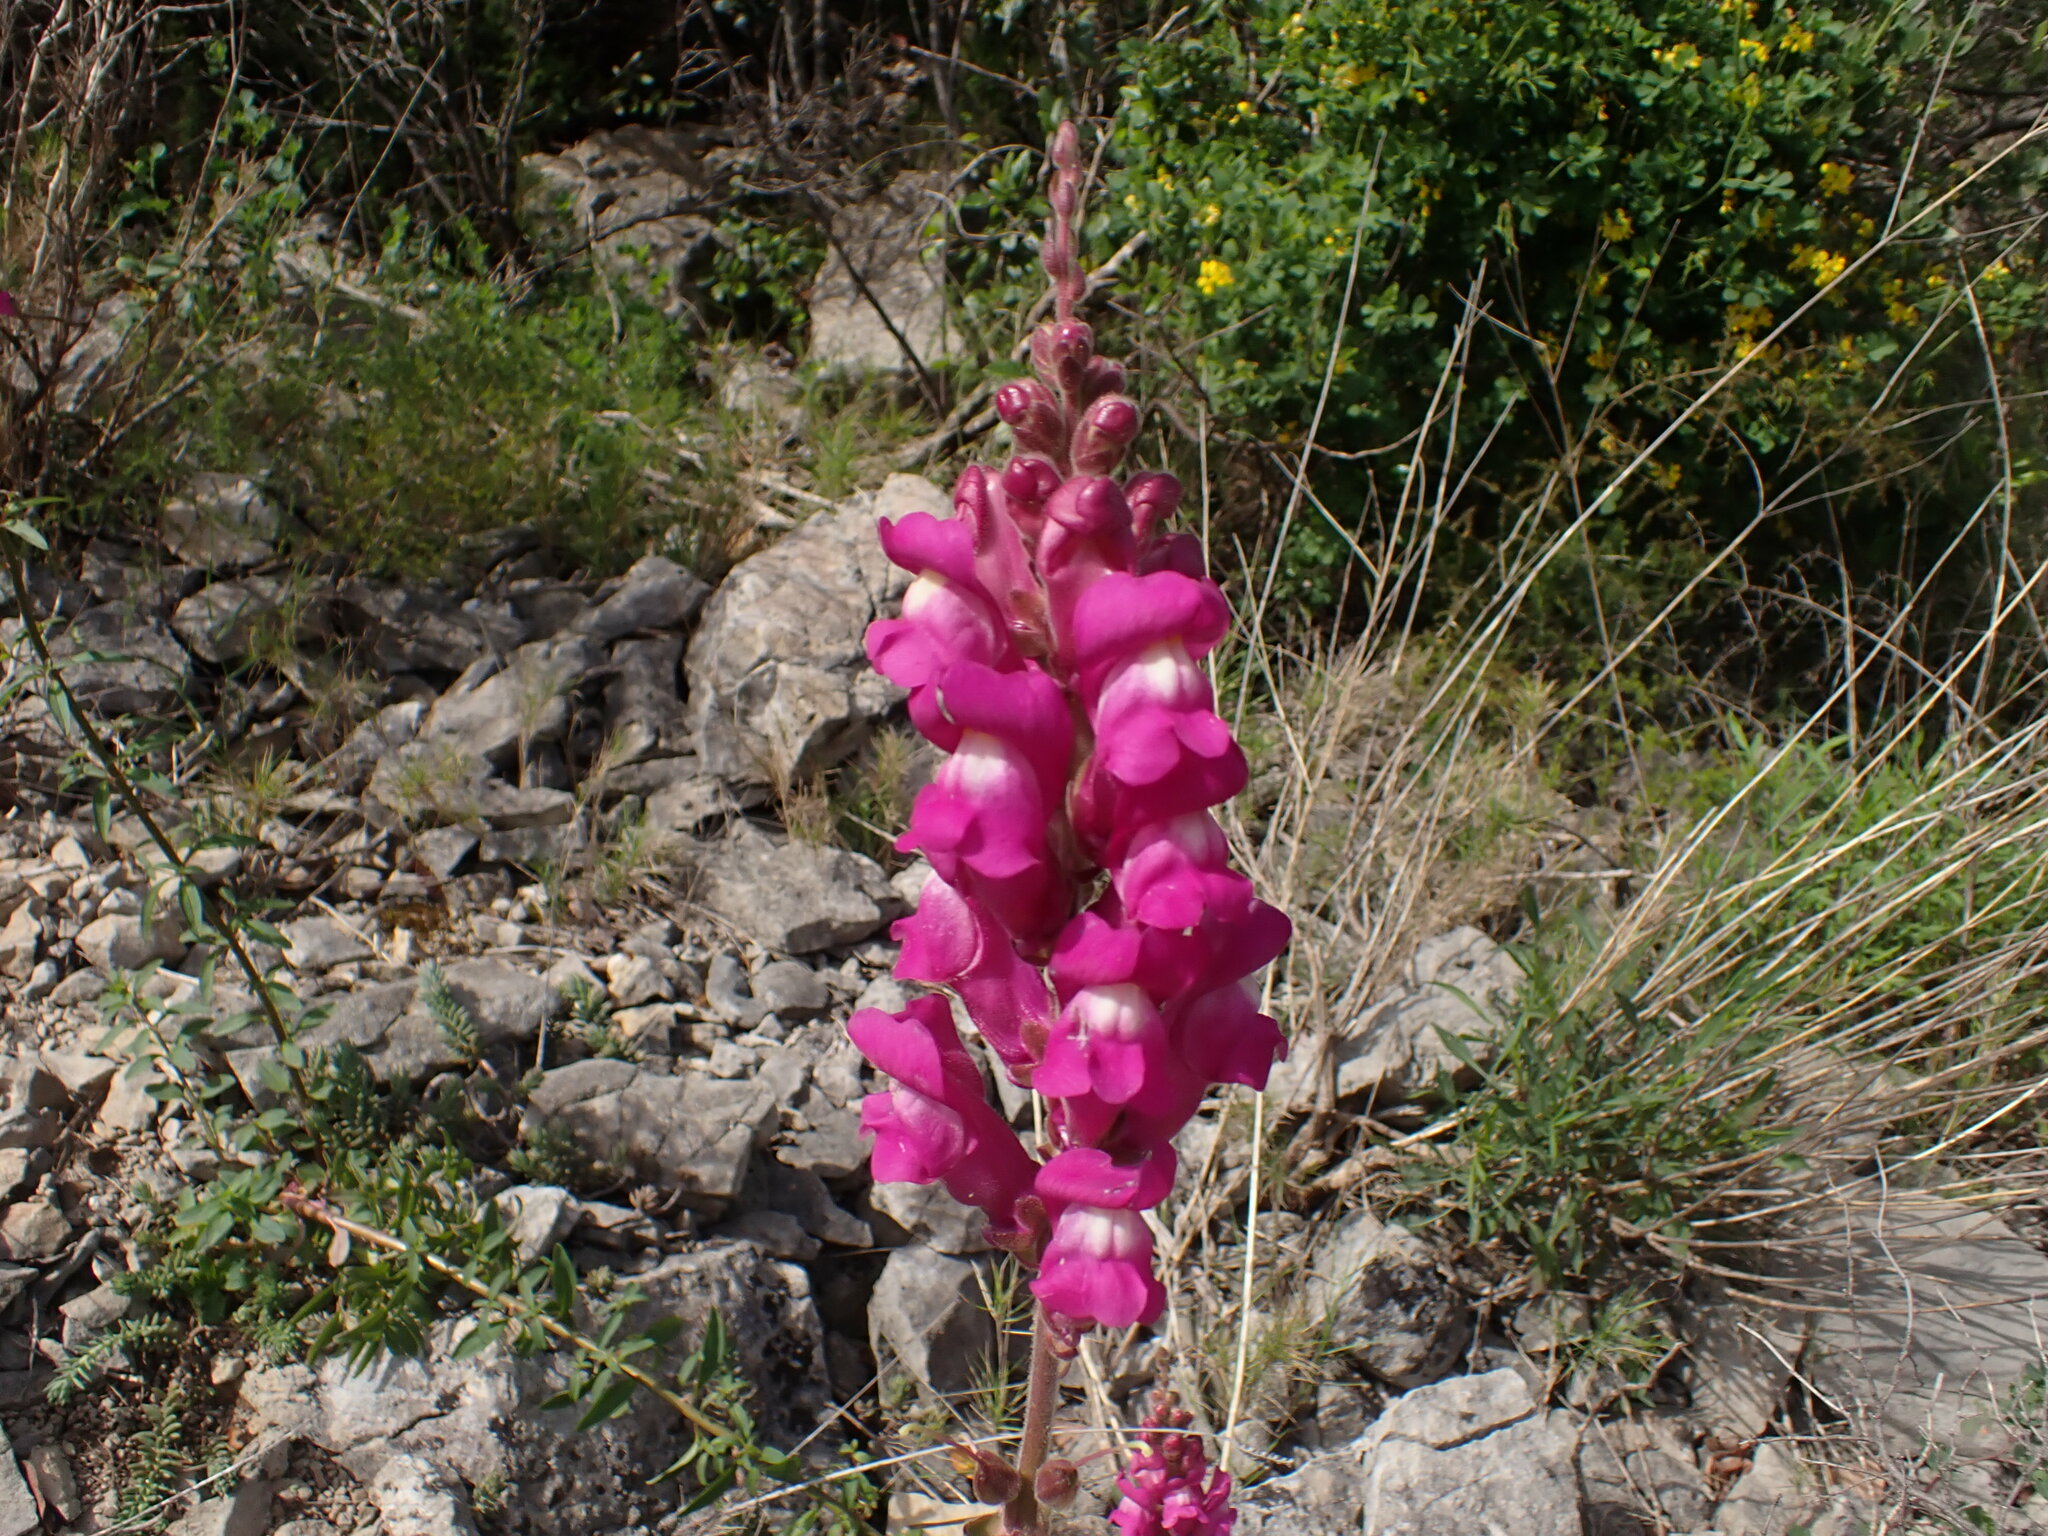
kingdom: Plantae
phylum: Tracheophyta
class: Magnoliopsida
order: Lamiales
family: Plantaginaceae
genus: Antirrhinum
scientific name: Antirrhinum majus
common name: Snapdragon
